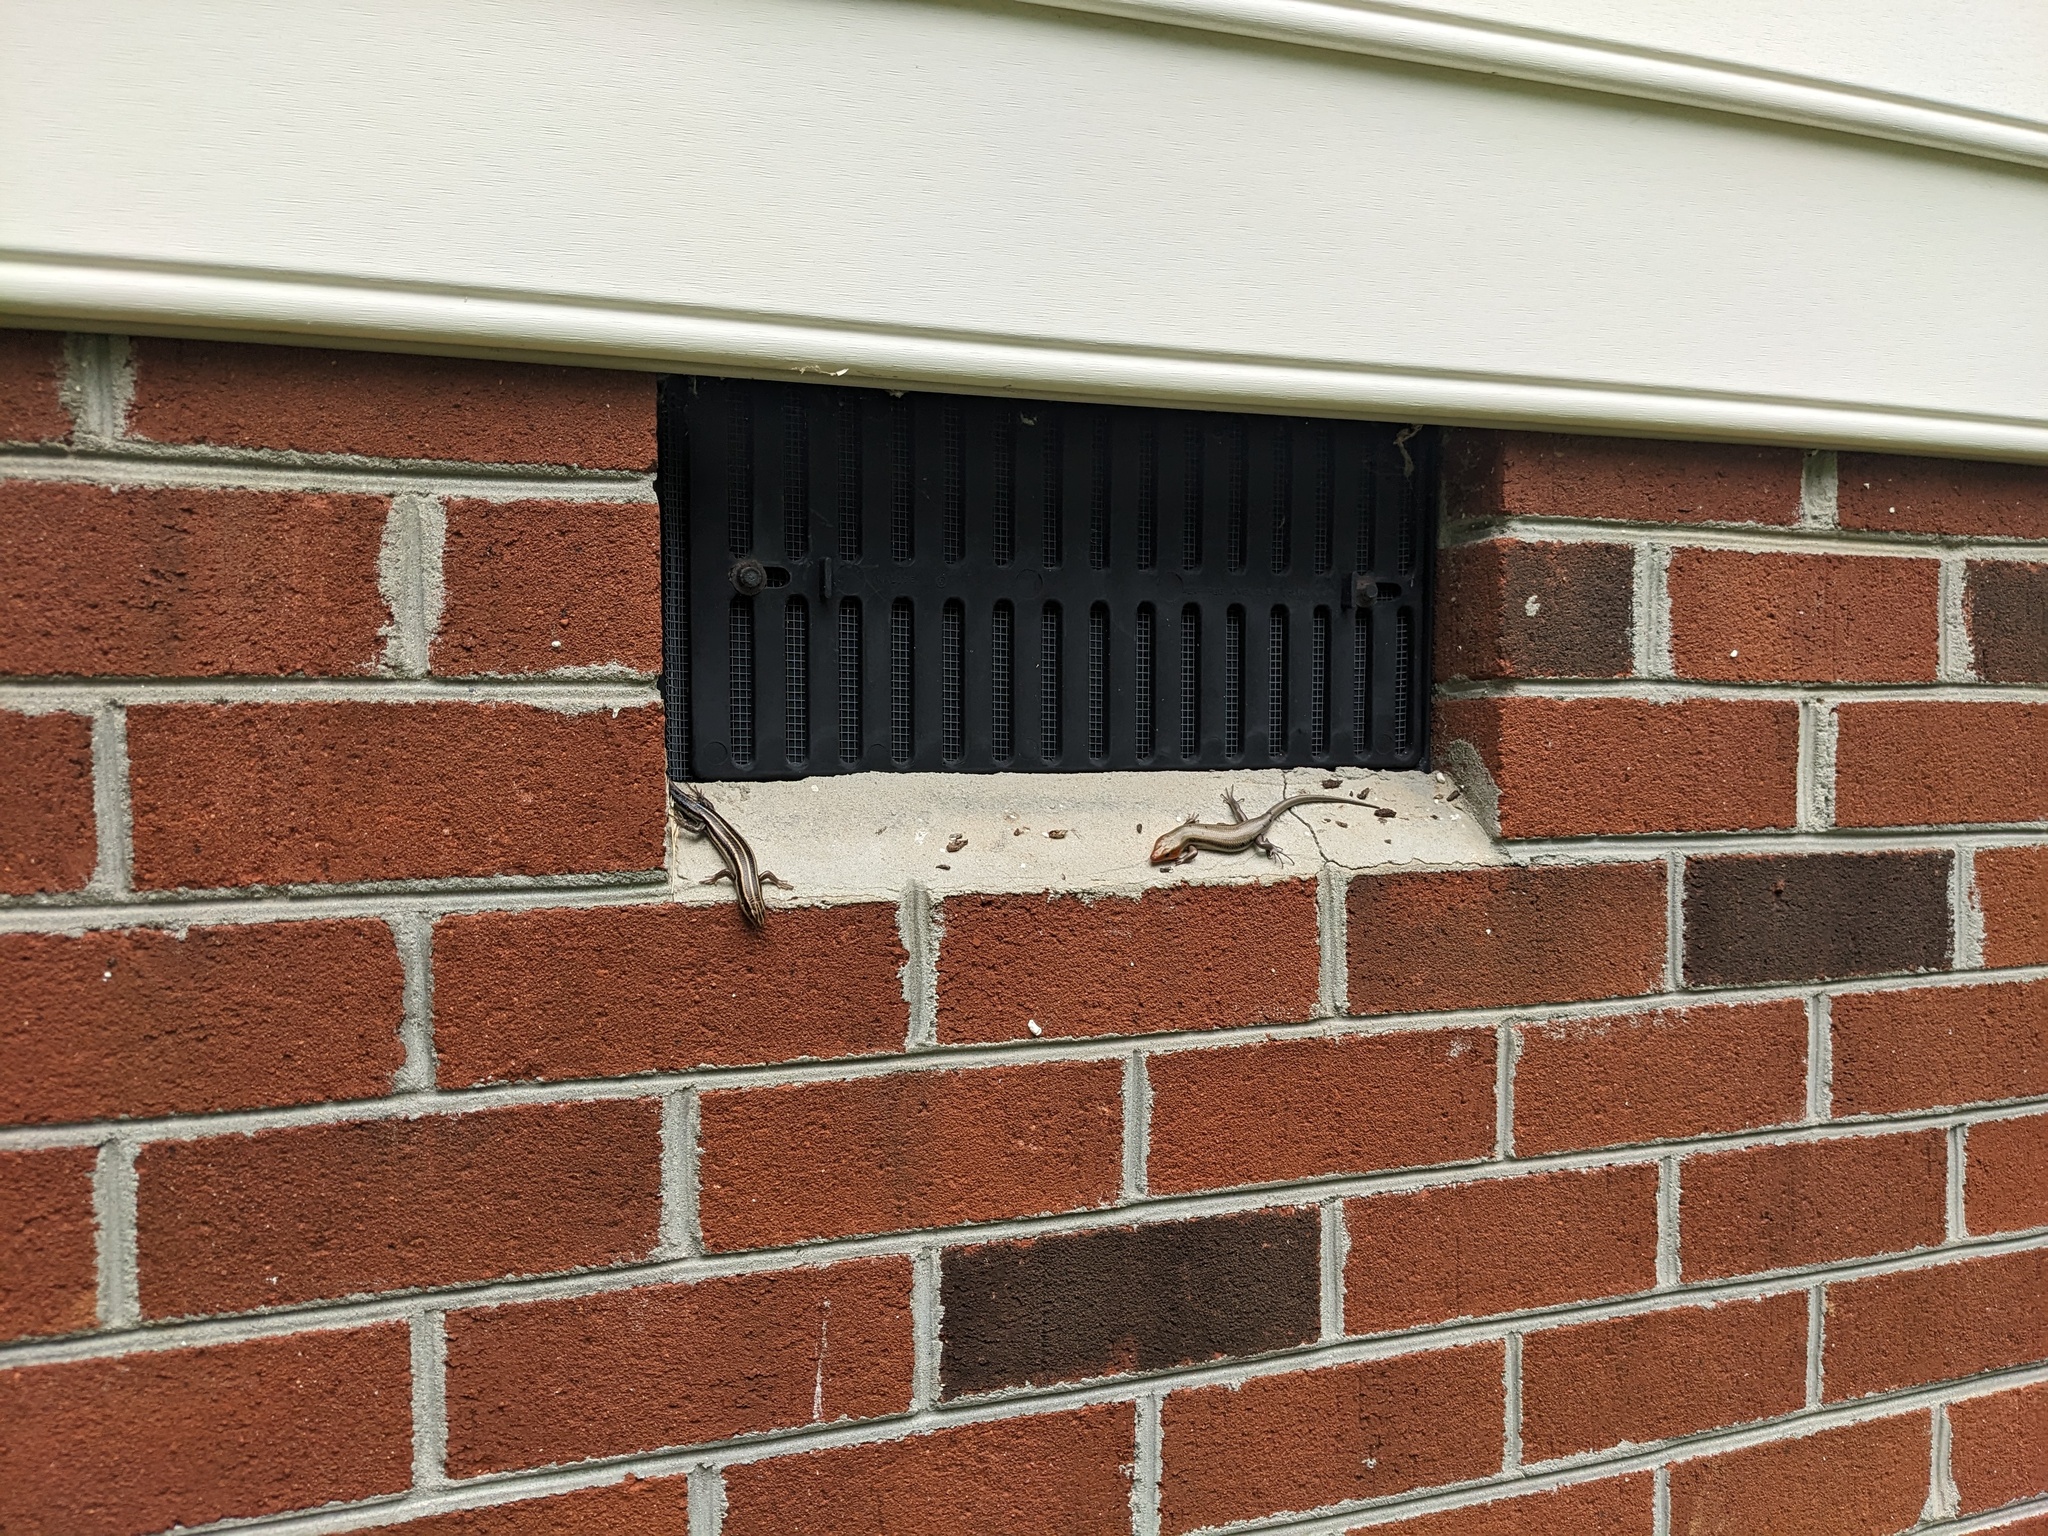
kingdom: Animalia
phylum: Chordata
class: Squamata
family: Scincidae
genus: Plestiodon
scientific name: Plestiodon fasciatus
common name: Five-lined skink
